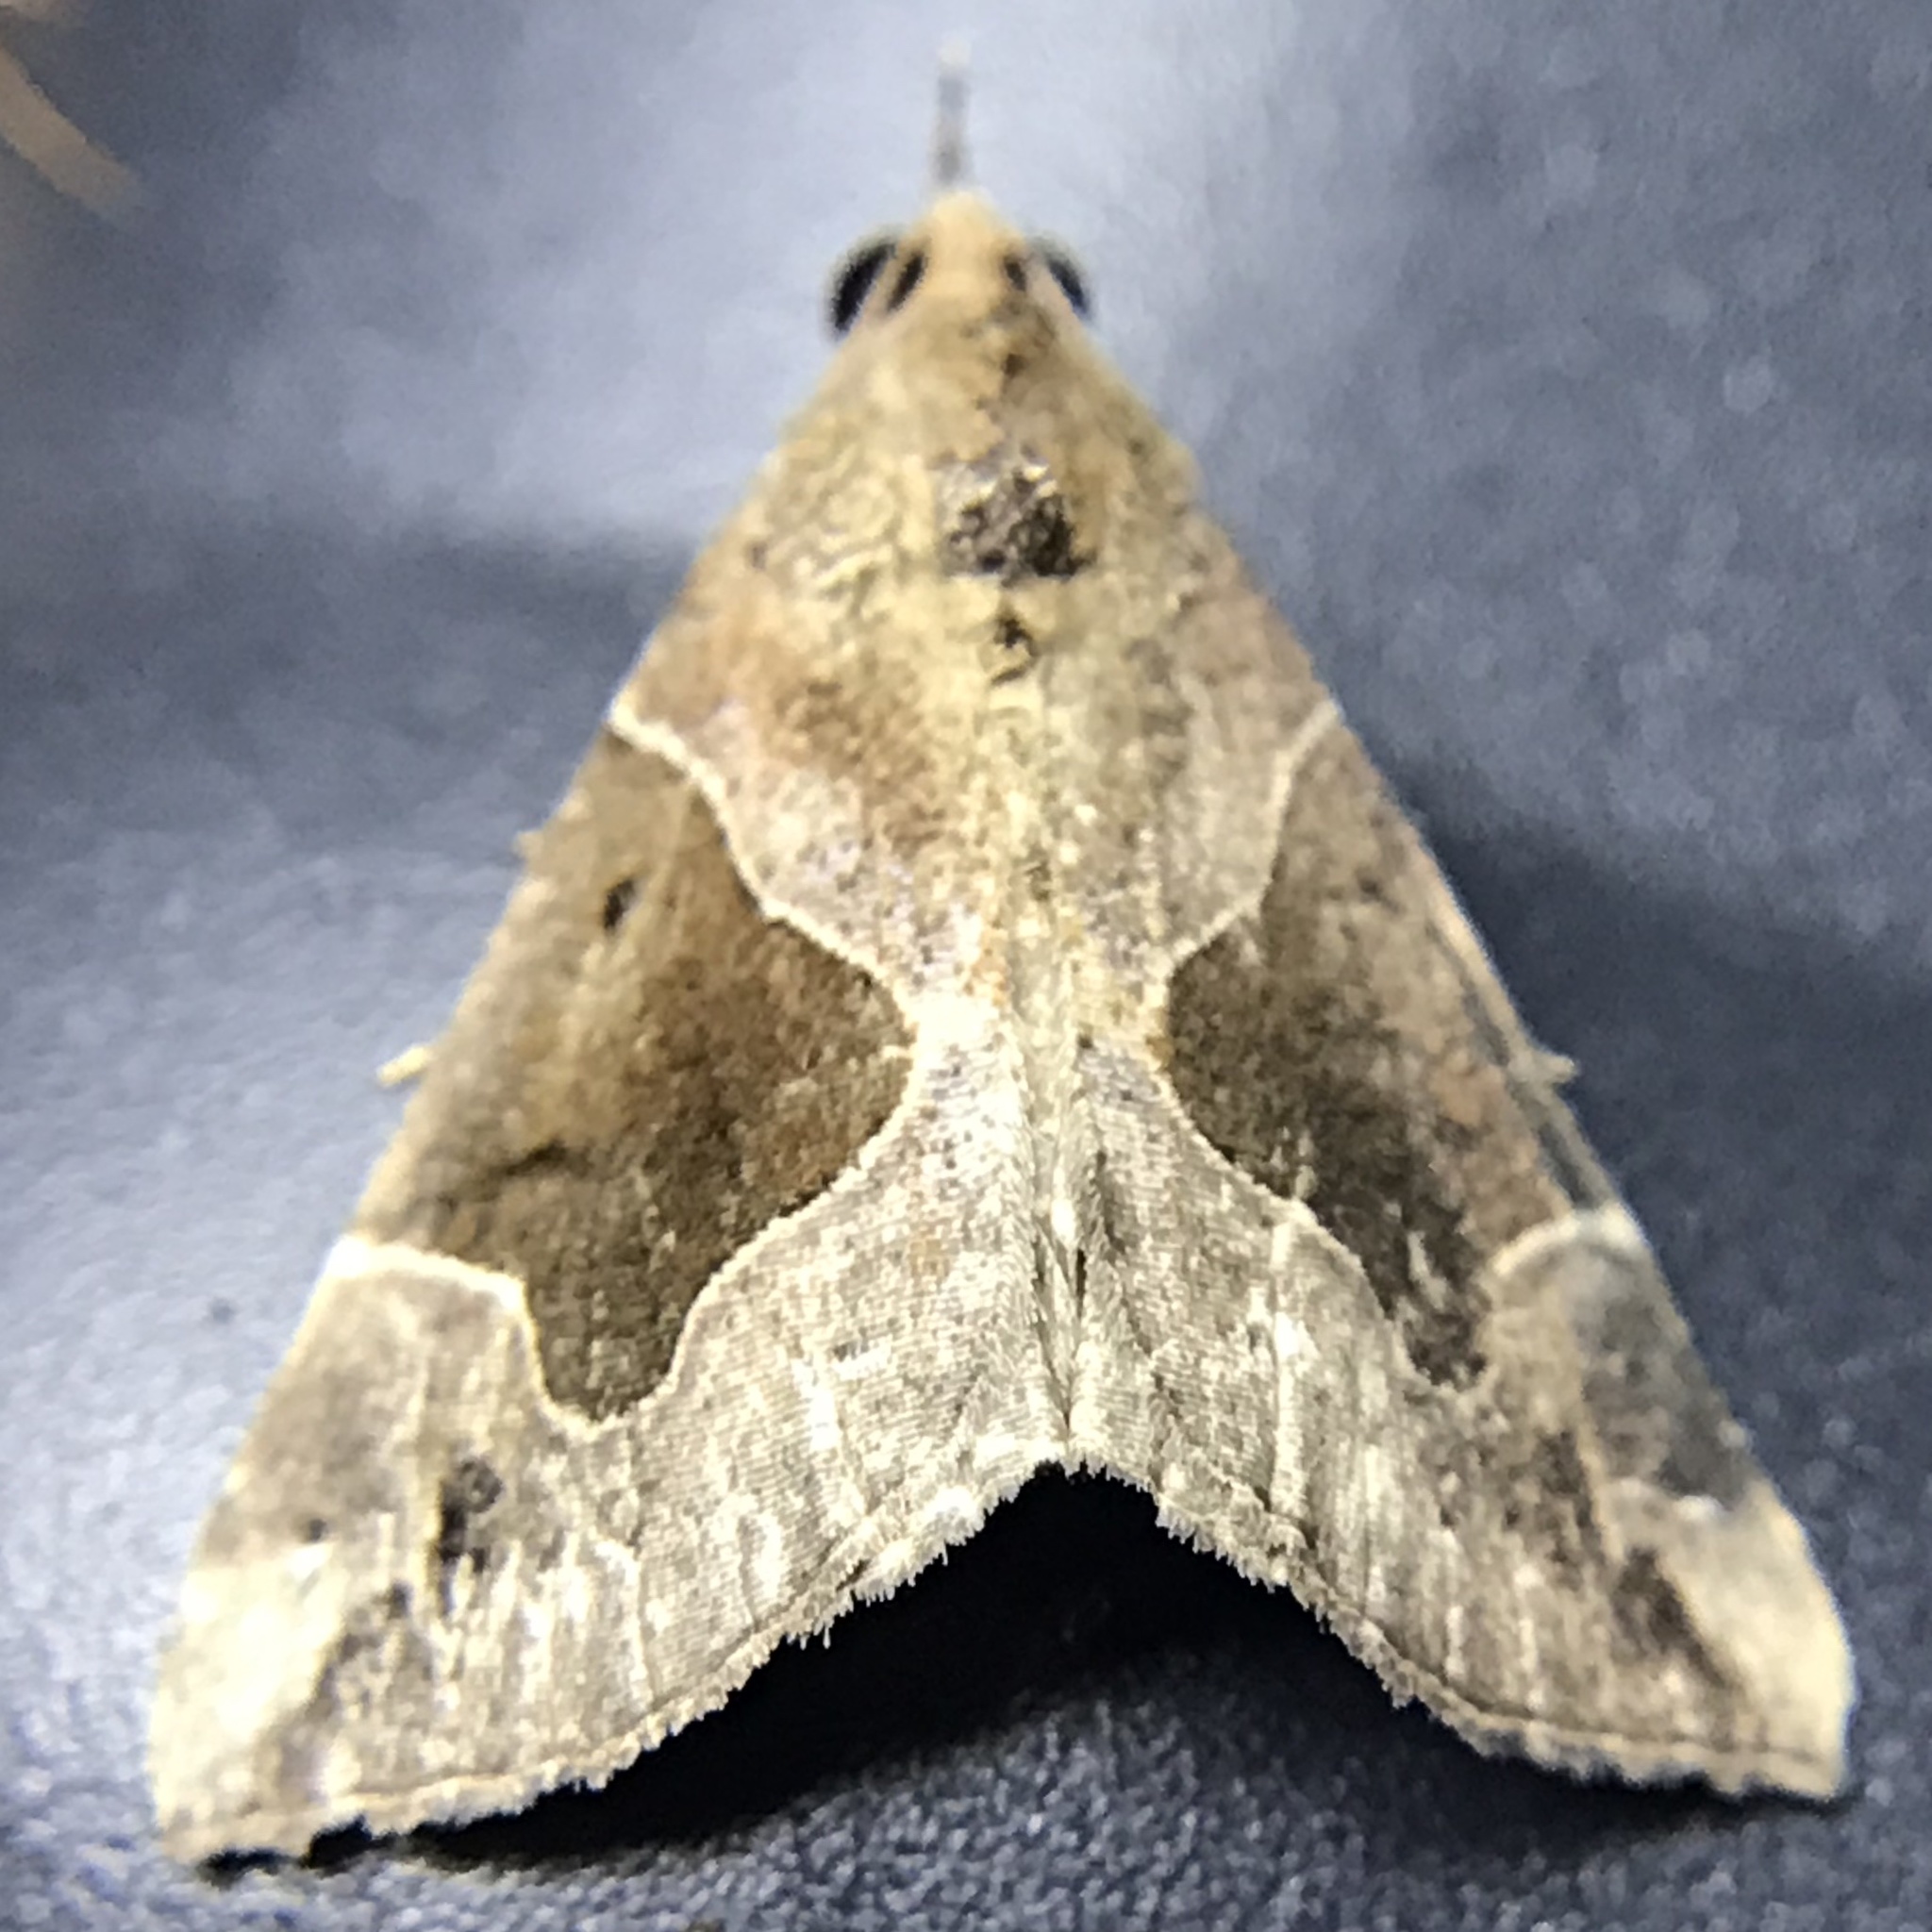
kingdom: Animalia
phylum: Arthropoda
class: Insecta
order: Lepidoptera
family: Erebidae
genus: Hypena
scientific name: Hypena manalis
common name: Flowing-line bomolocha moth
